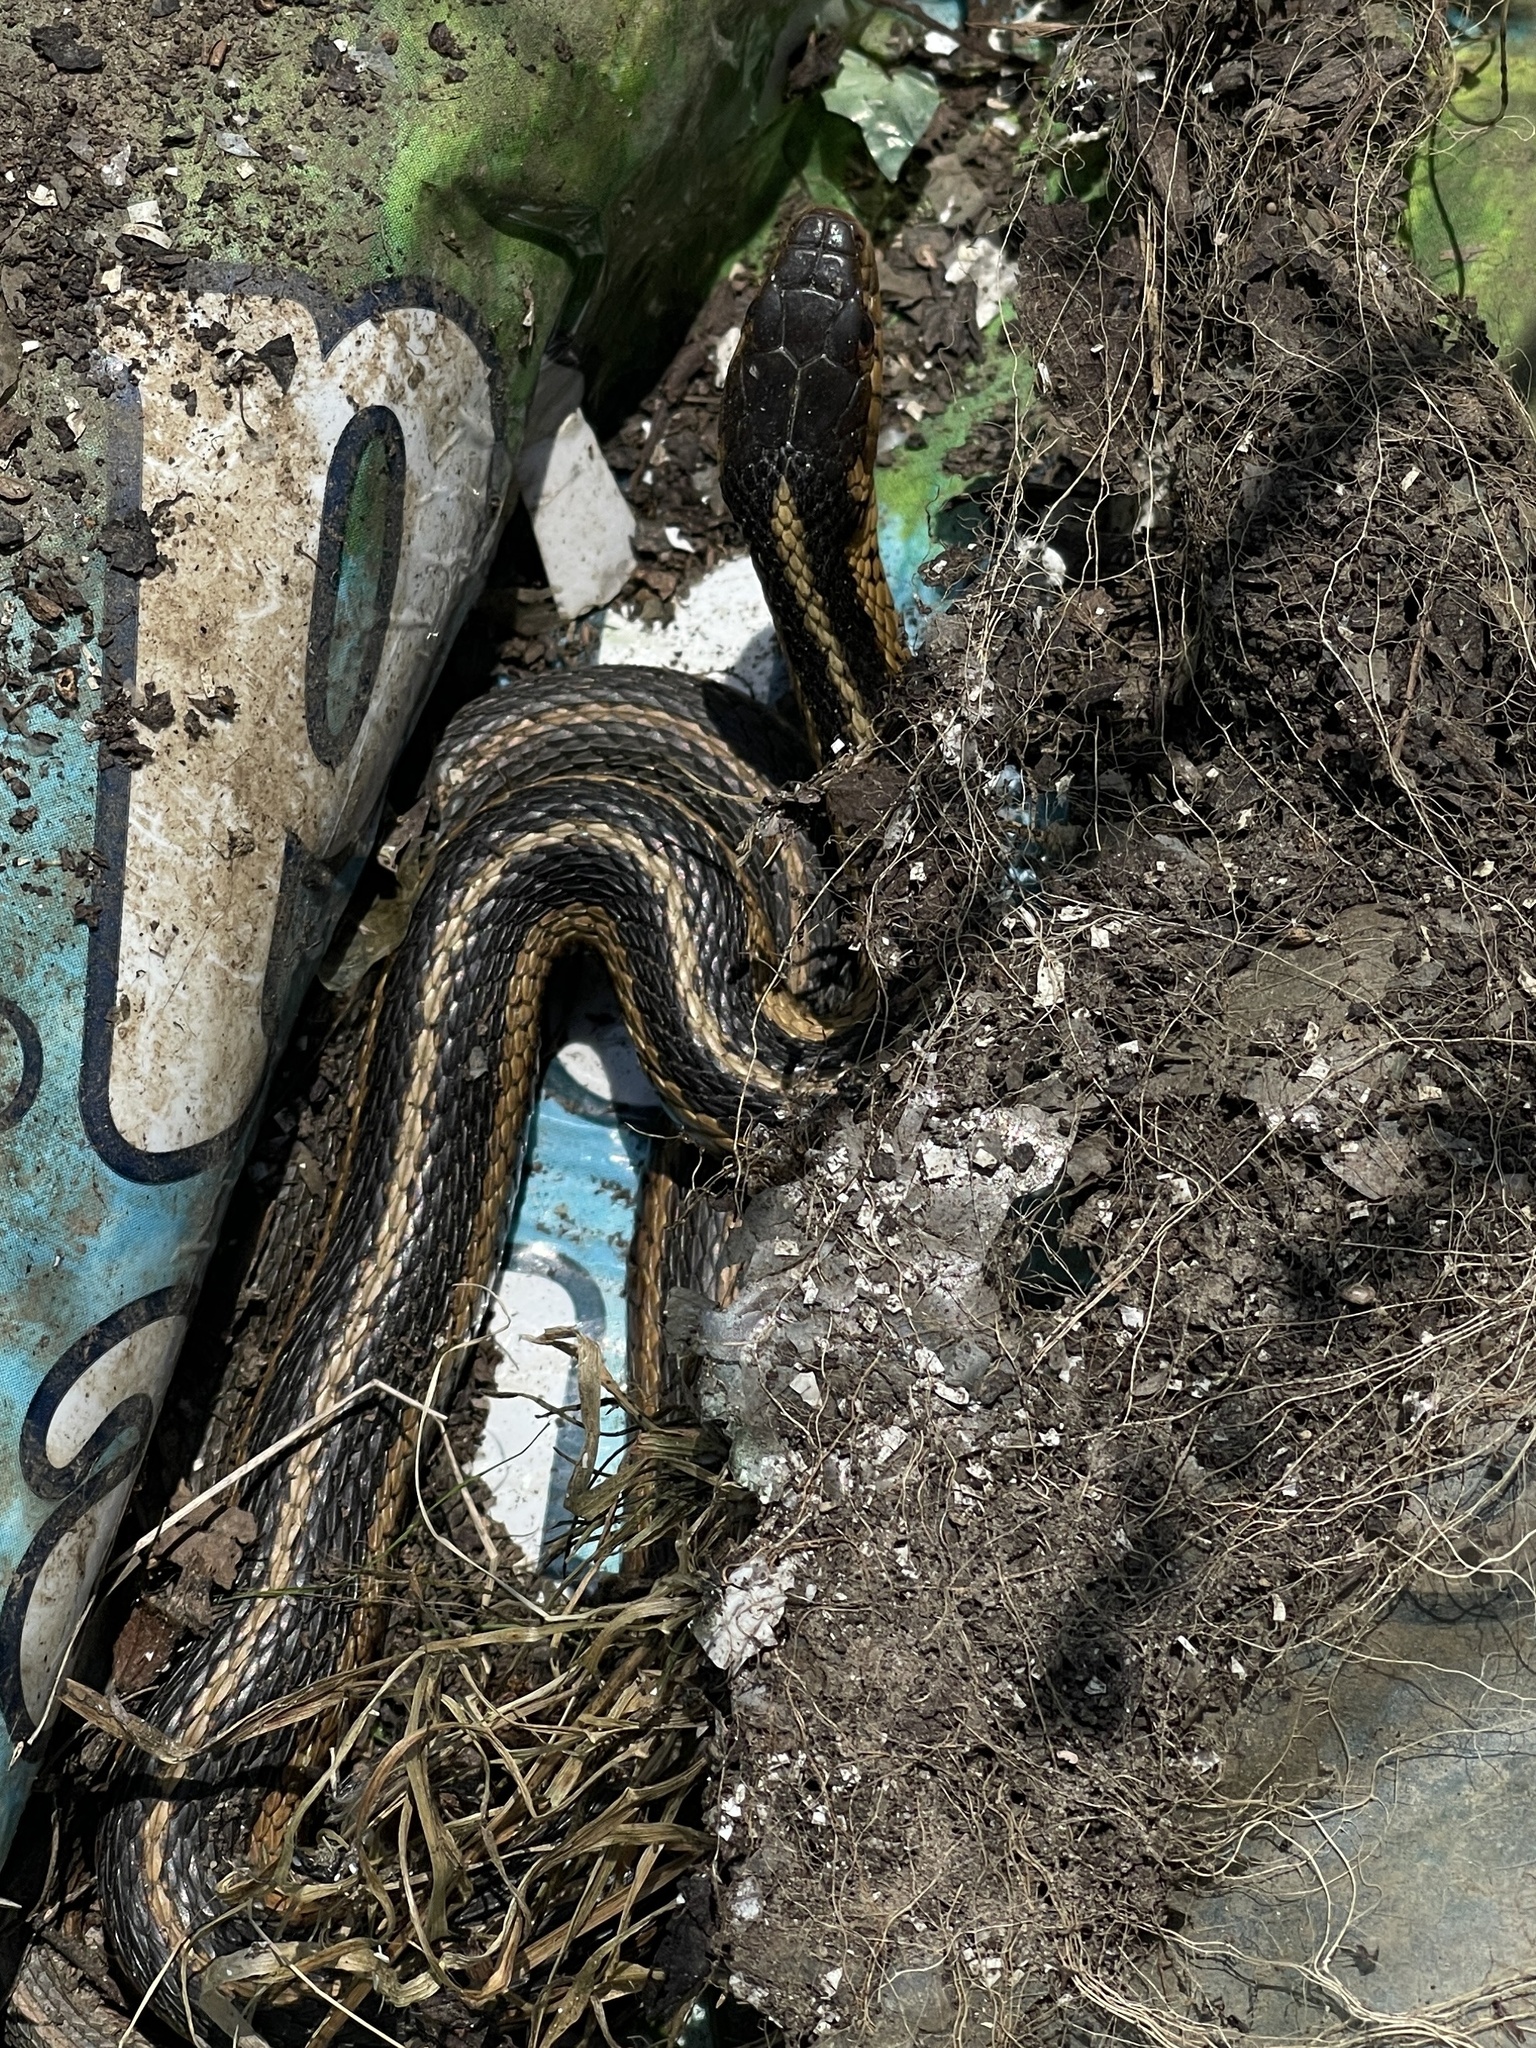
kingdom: Animalia
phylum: Chordata
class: Squamata
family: Colubridae
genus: Thamnophis
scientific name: Thamnophis sirtalis
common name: Common garter snake
